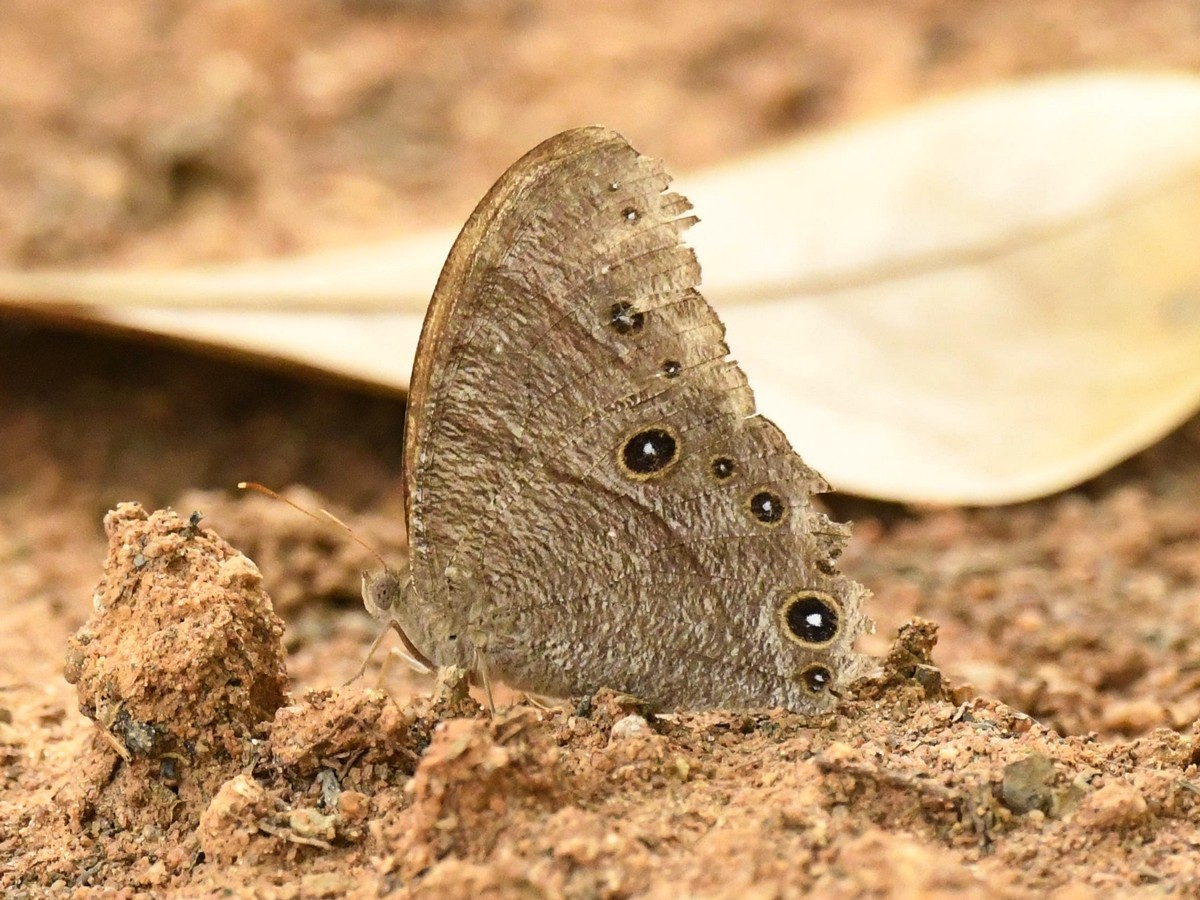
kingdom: Animalia
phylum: Arthropoda
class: Insecta
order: Lepidoptera
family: Nymphalidae
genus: Melanitis
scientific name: Melanitis leda
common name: Twilight brown
